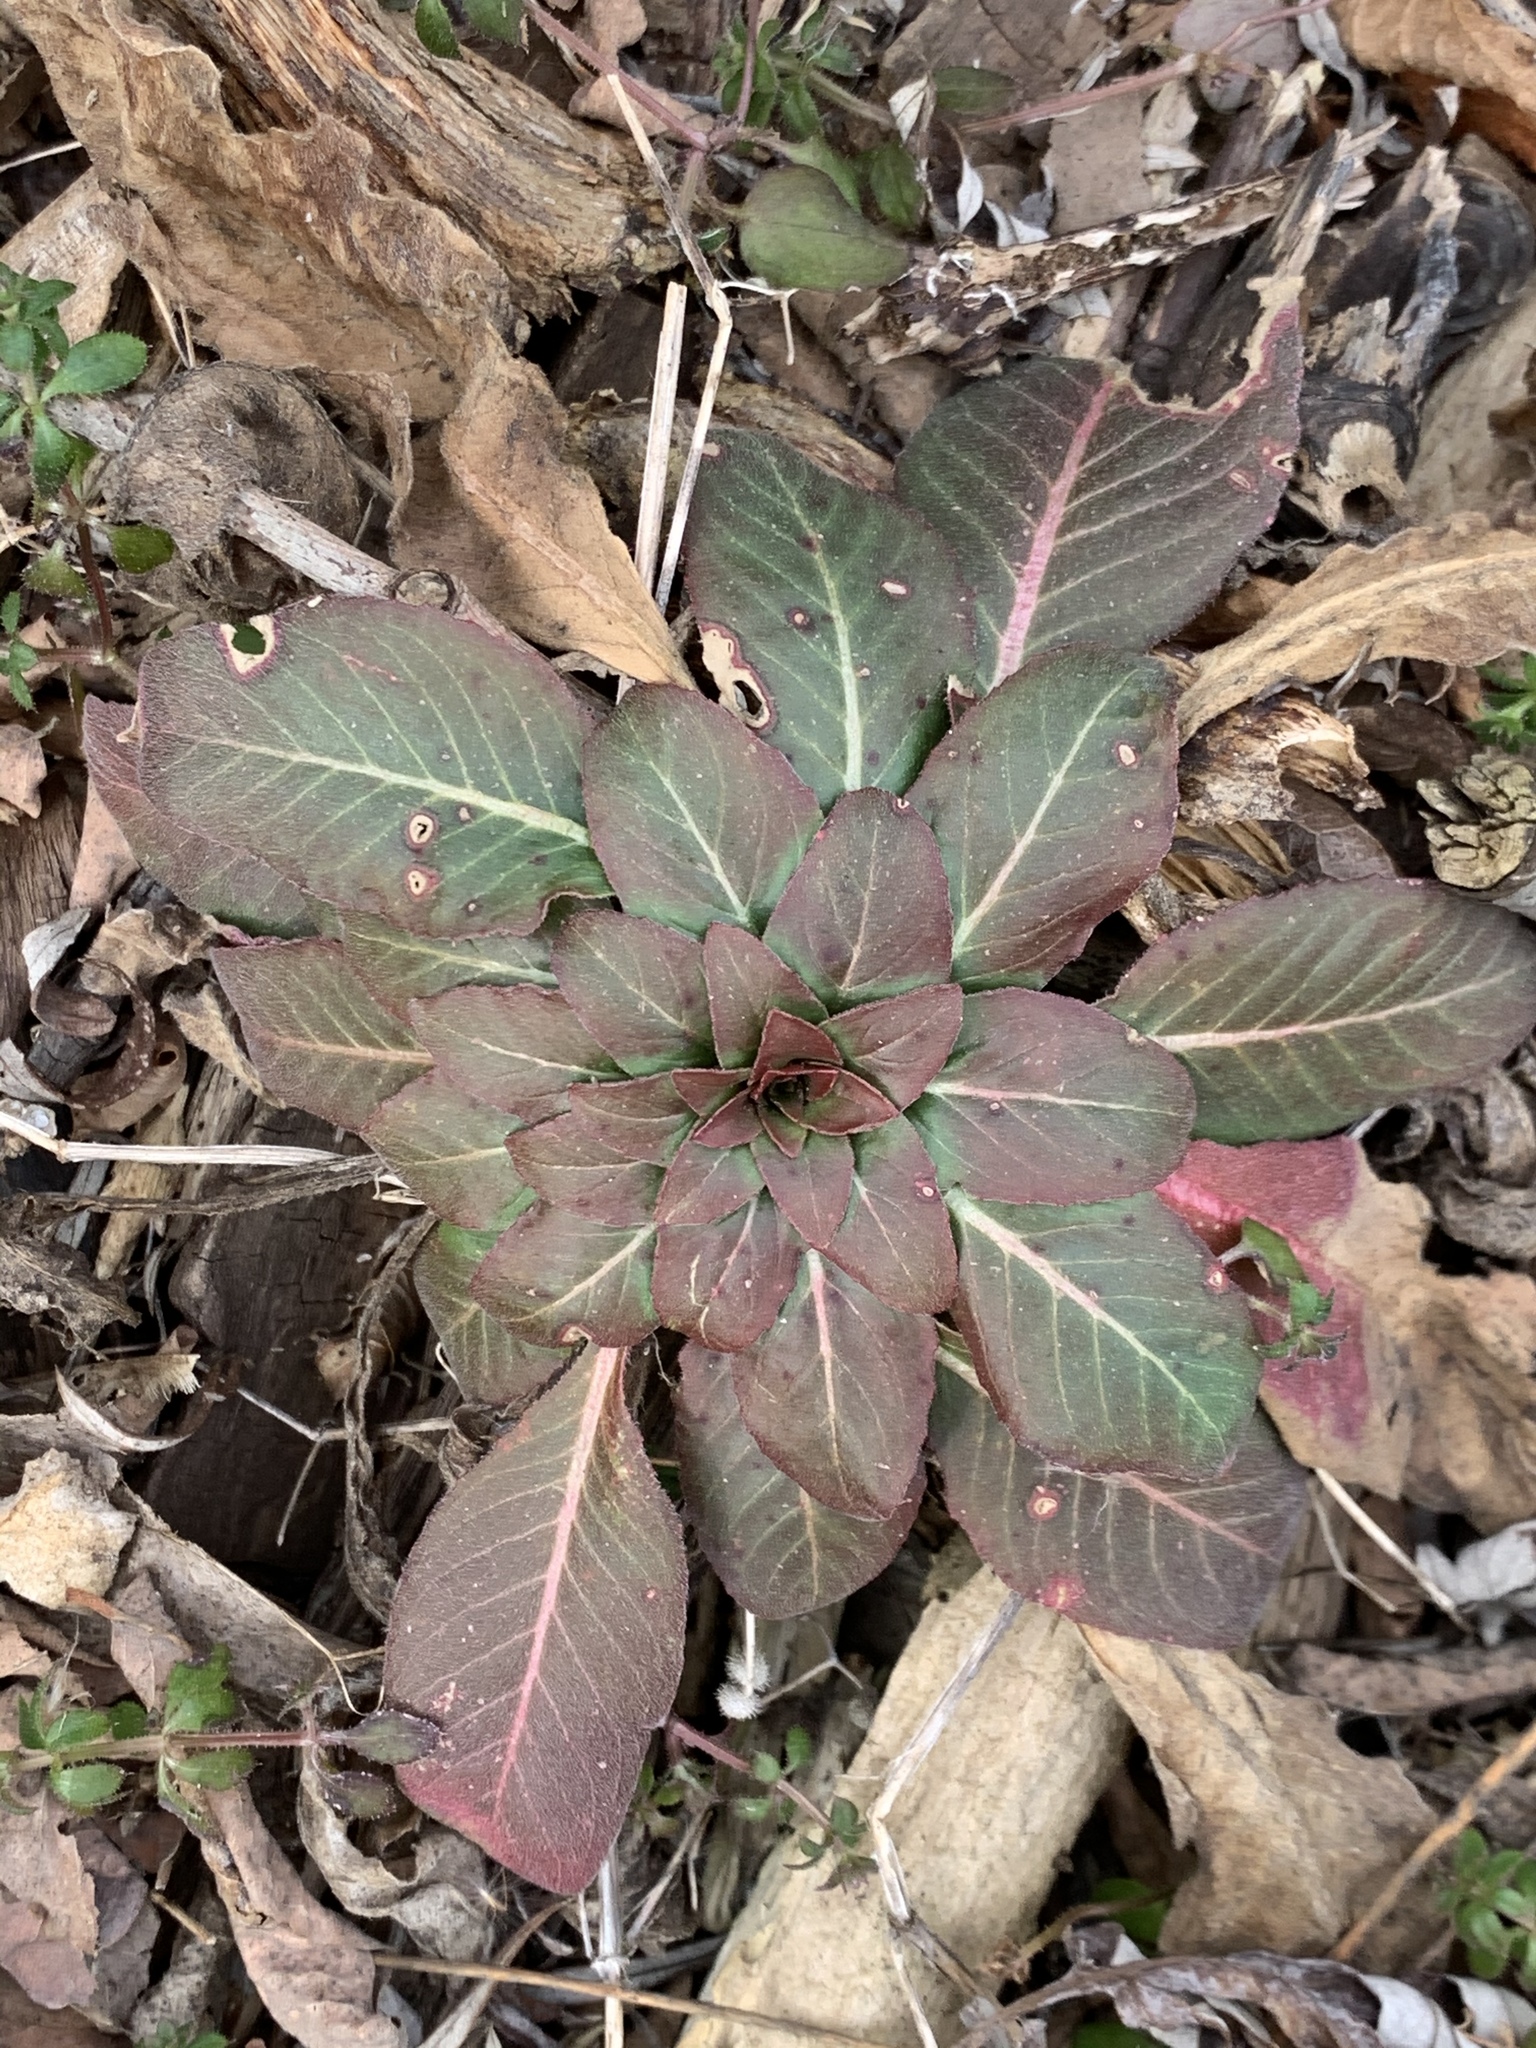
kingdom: Plantae
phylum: Tracheophyta
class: Magnoliopsida
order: Myrtales
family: Onagraceae
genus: Oenothera
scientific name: Oenothera biennis
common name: Common evening-primrose
